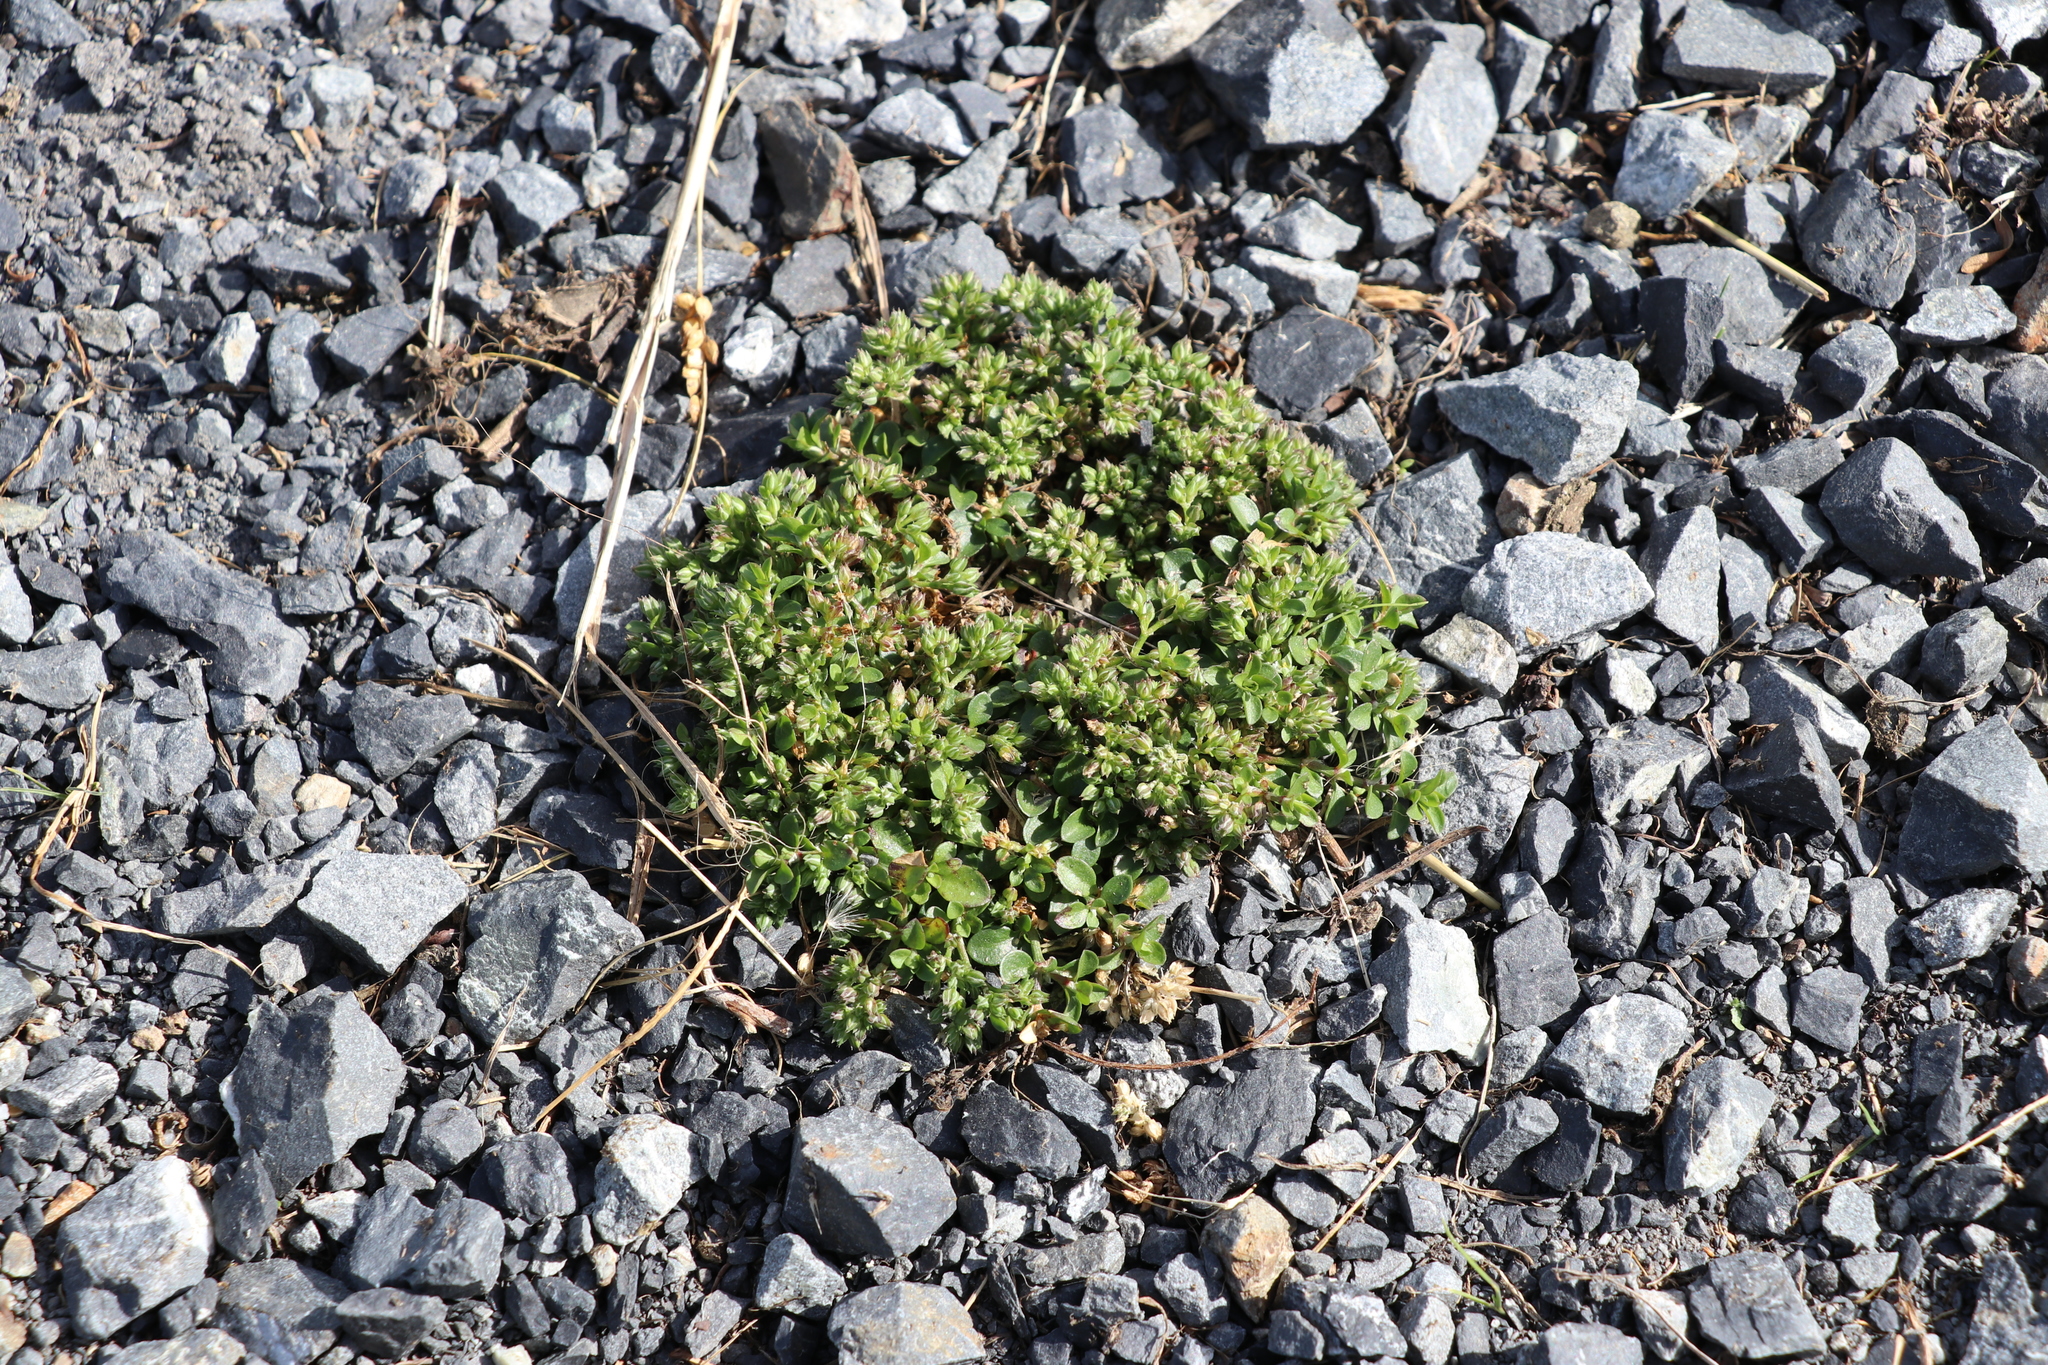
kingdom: Plantae
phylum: Tracheophyta
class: Magnoliopsida
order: Caryophyllales
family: Caryophyllaceae
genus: Polycarpon
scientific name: Polycarpon tetraphyllum
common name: Four-leaved all-seed
